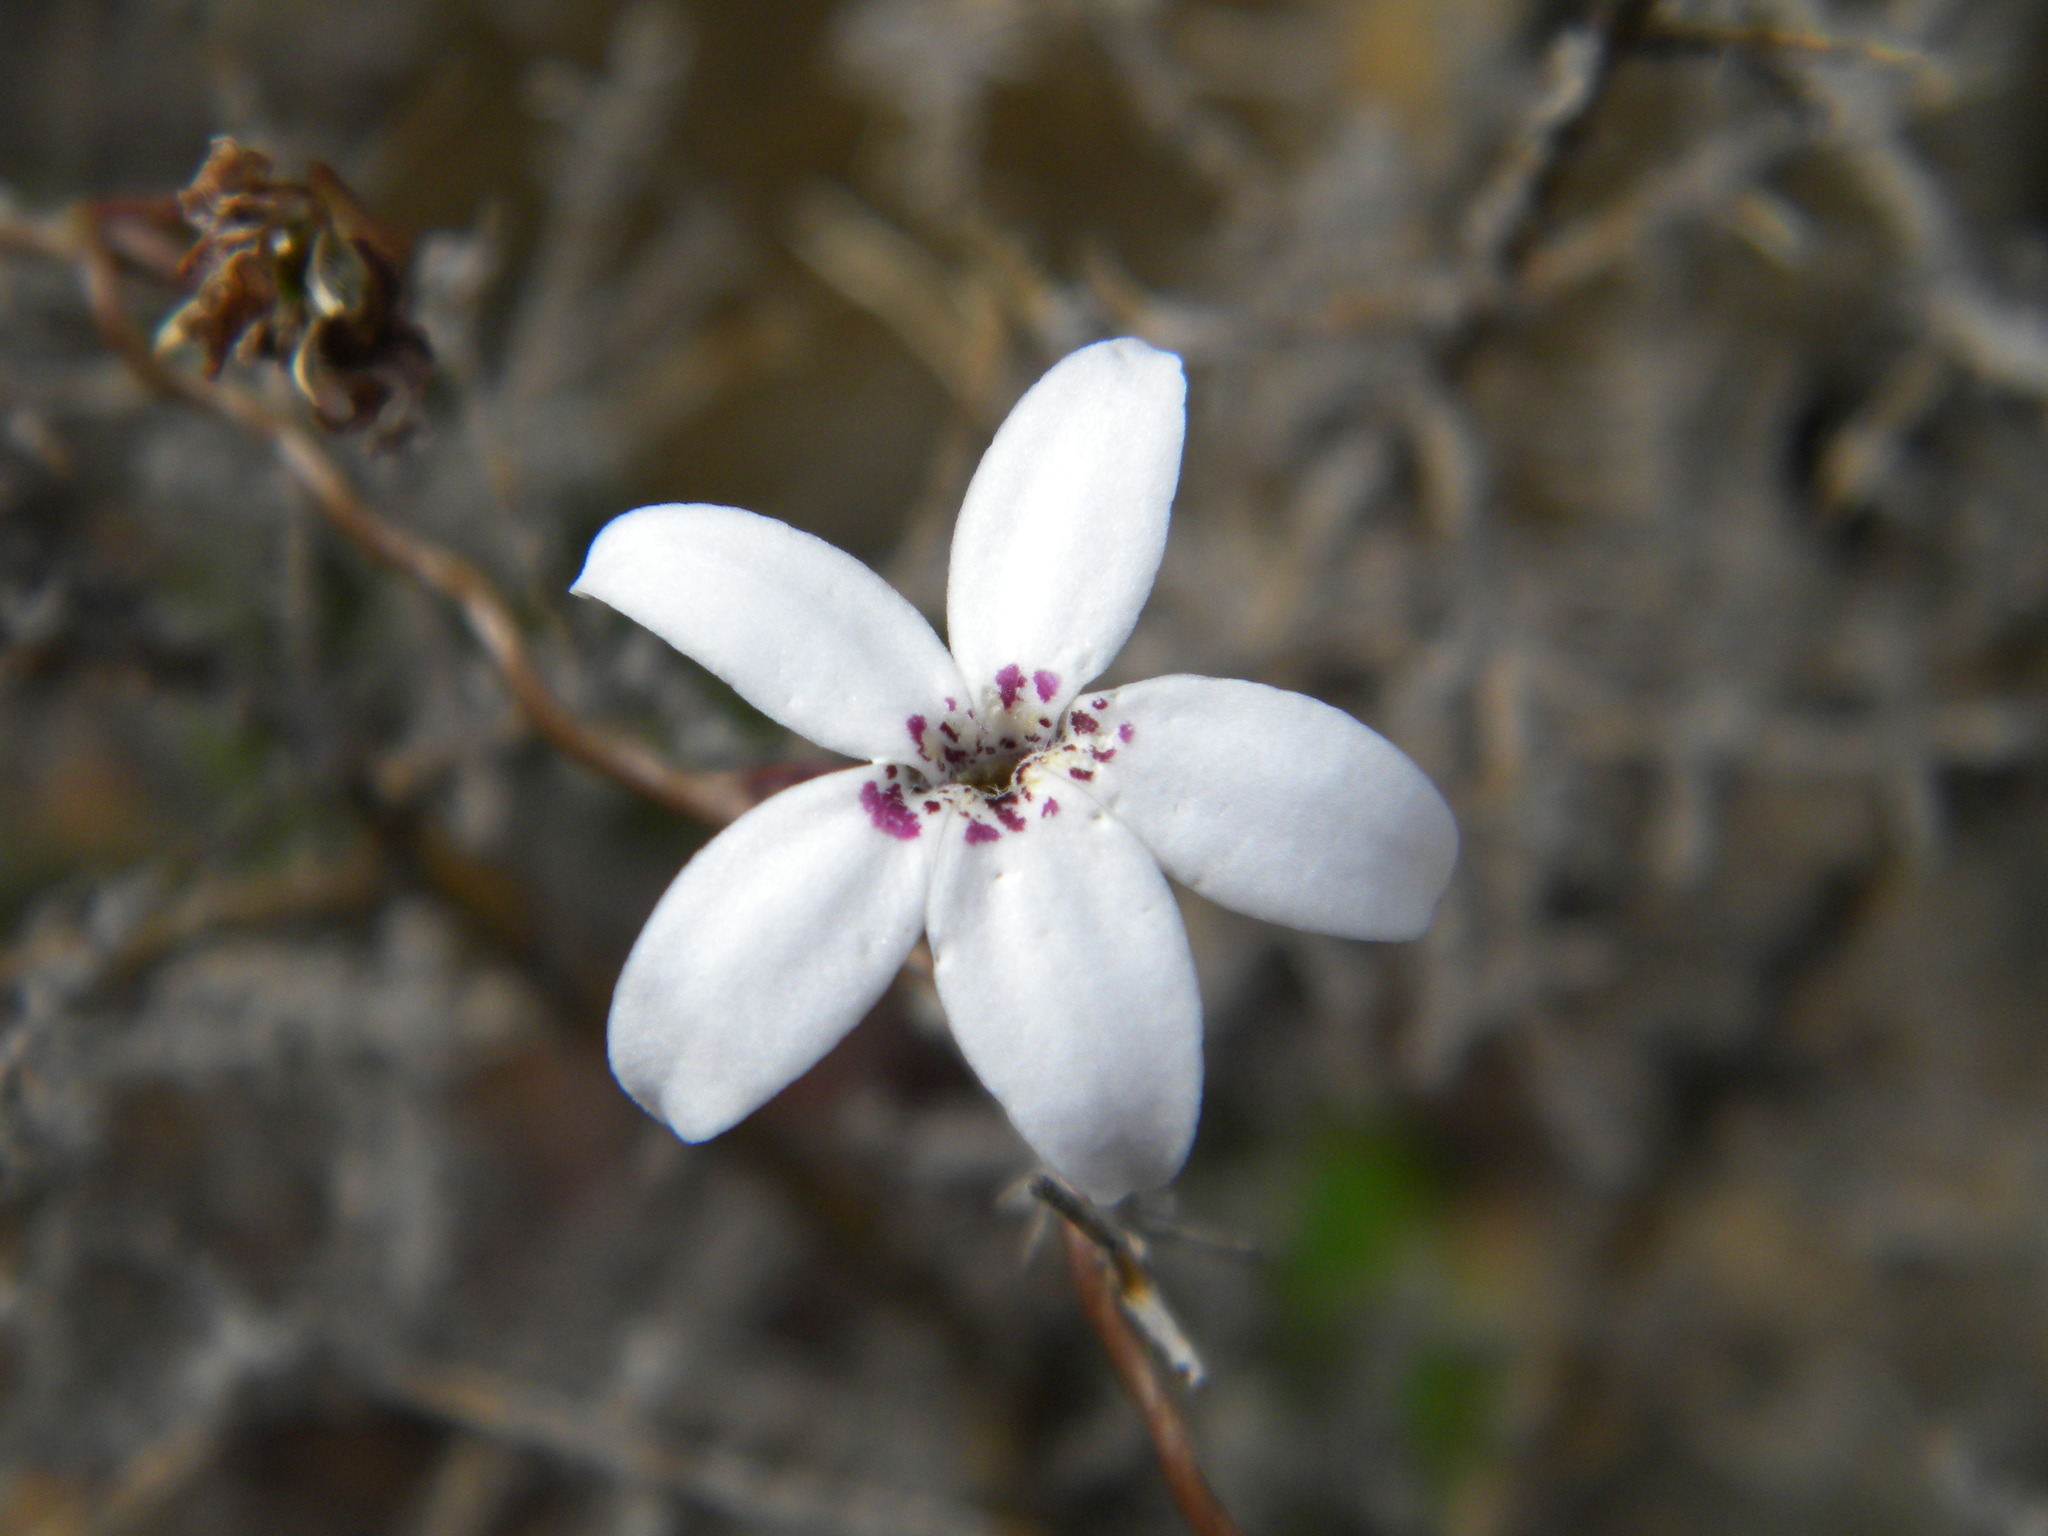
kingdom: Plantae
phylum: Tracheophyta
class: Magnoliopsida
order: Asterales
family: Campanulaceae
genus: Cyphia
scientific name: Cyphia volubilis
